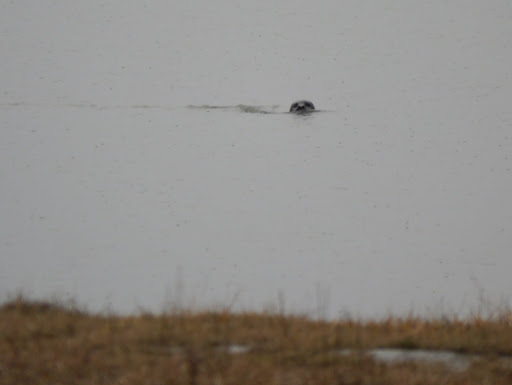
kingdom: Animalia
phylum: Chordata
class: Mammalia
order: Carnivora
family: Phocidae
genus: Phoca
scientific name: Phoca vitulina
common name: Harbor seal
